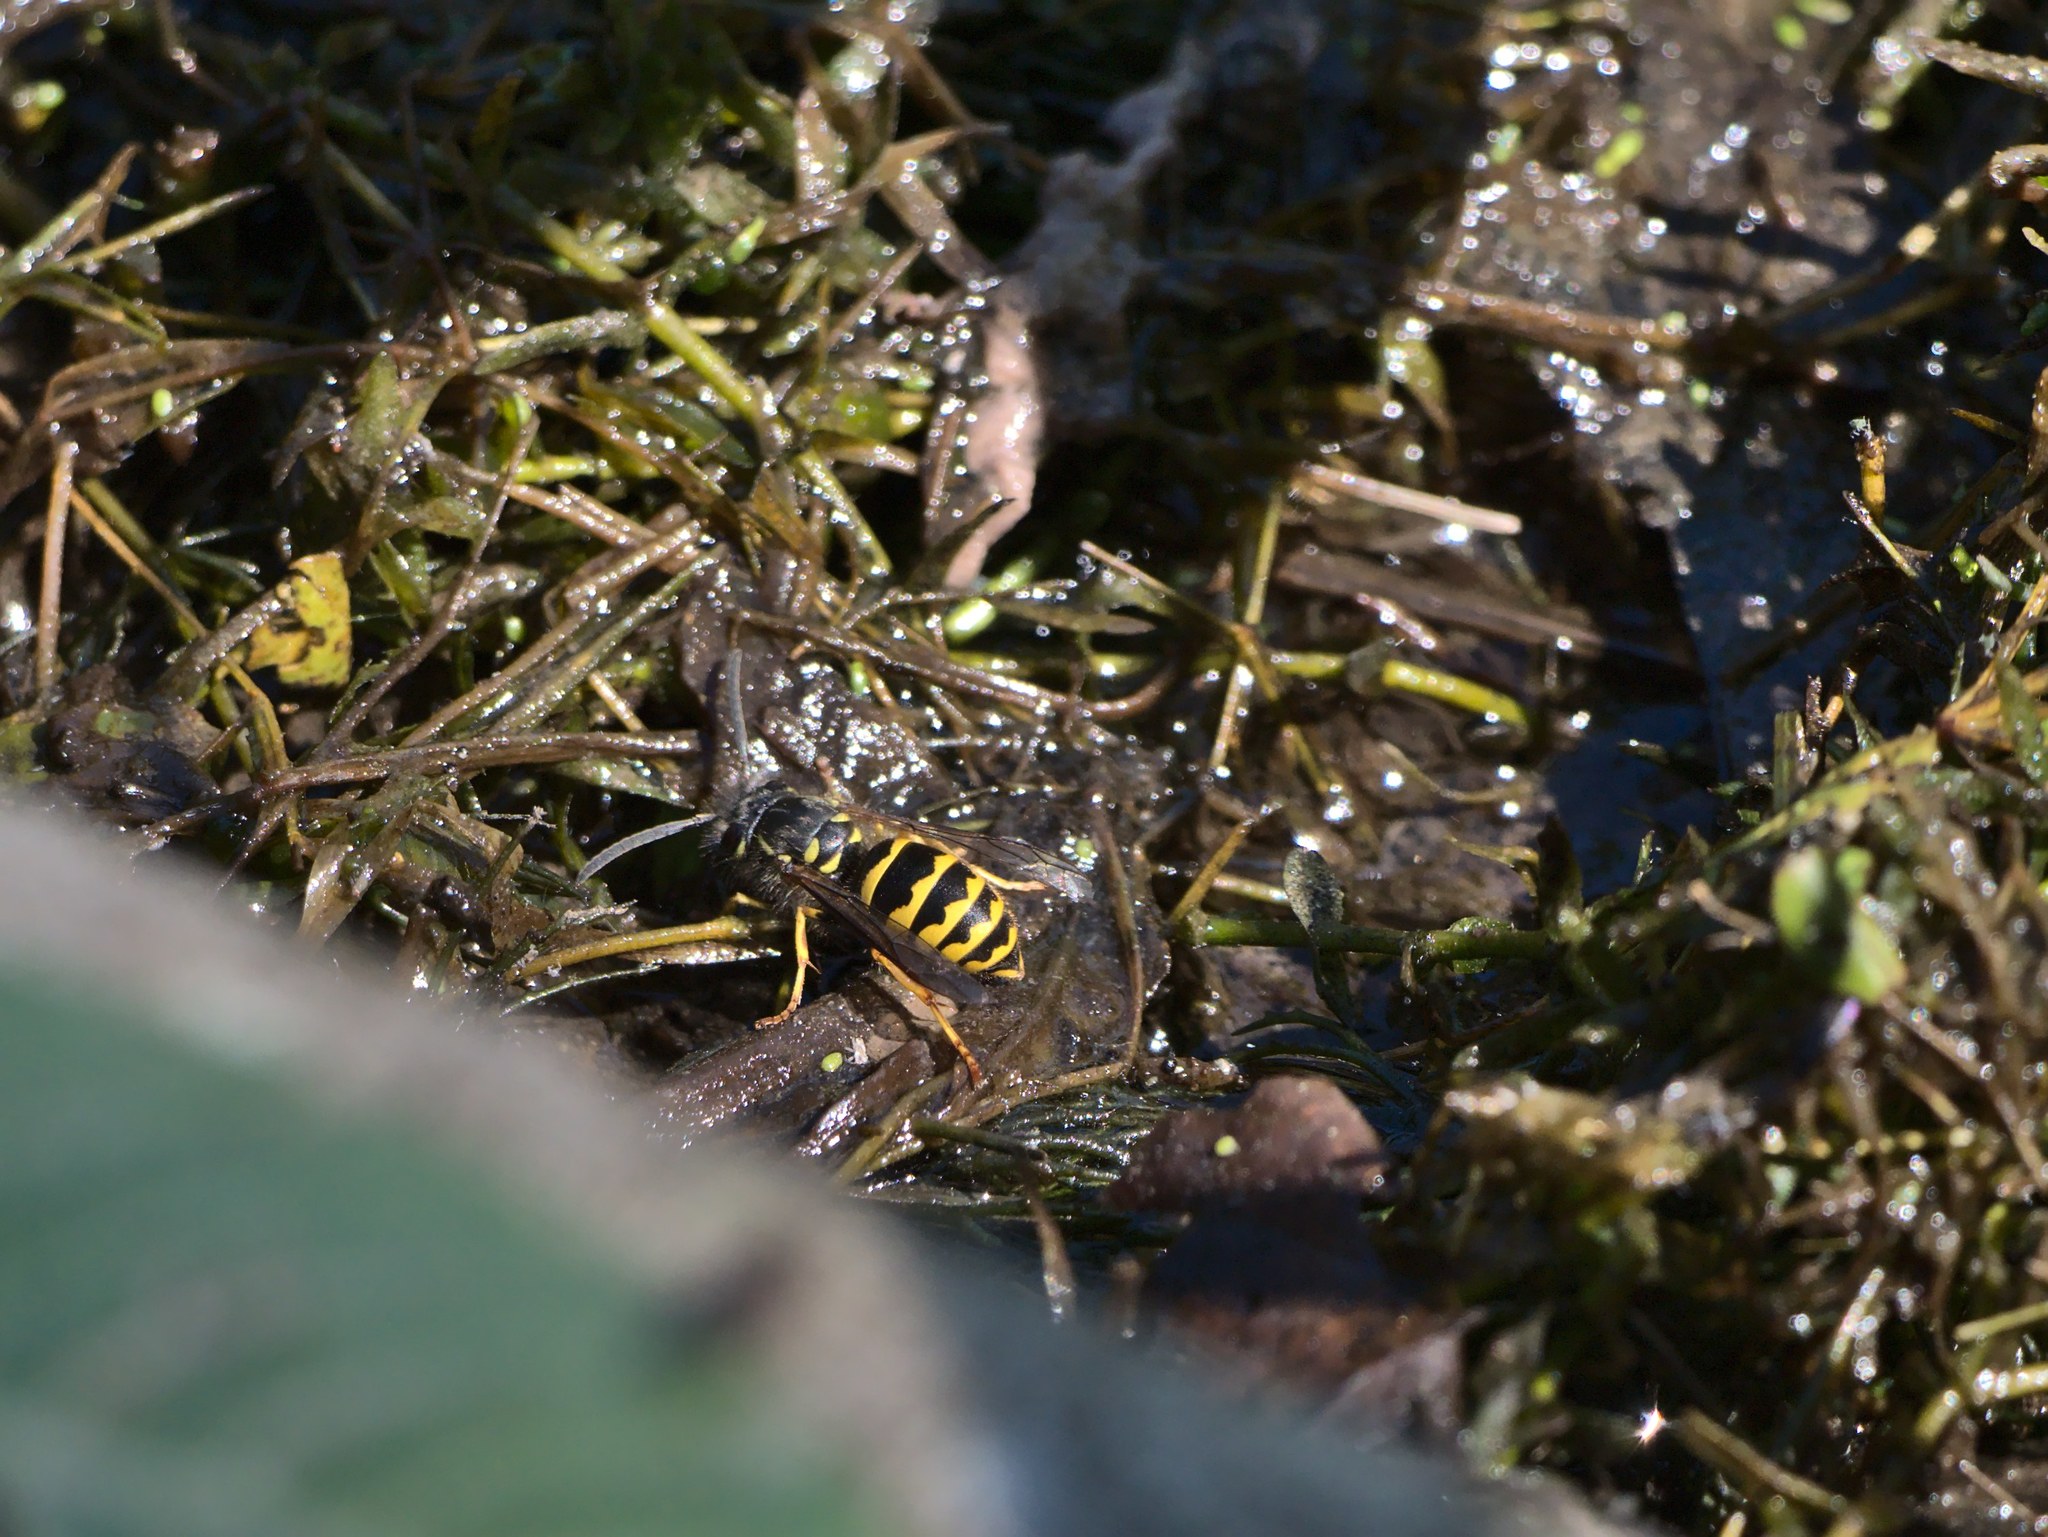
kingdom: Animalia
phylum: Arthropoda
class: Insecta
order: Hymenoptera
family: Vespidae
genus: Vespula
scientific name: Vespula alascensis
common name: Alaska yellowjacket
